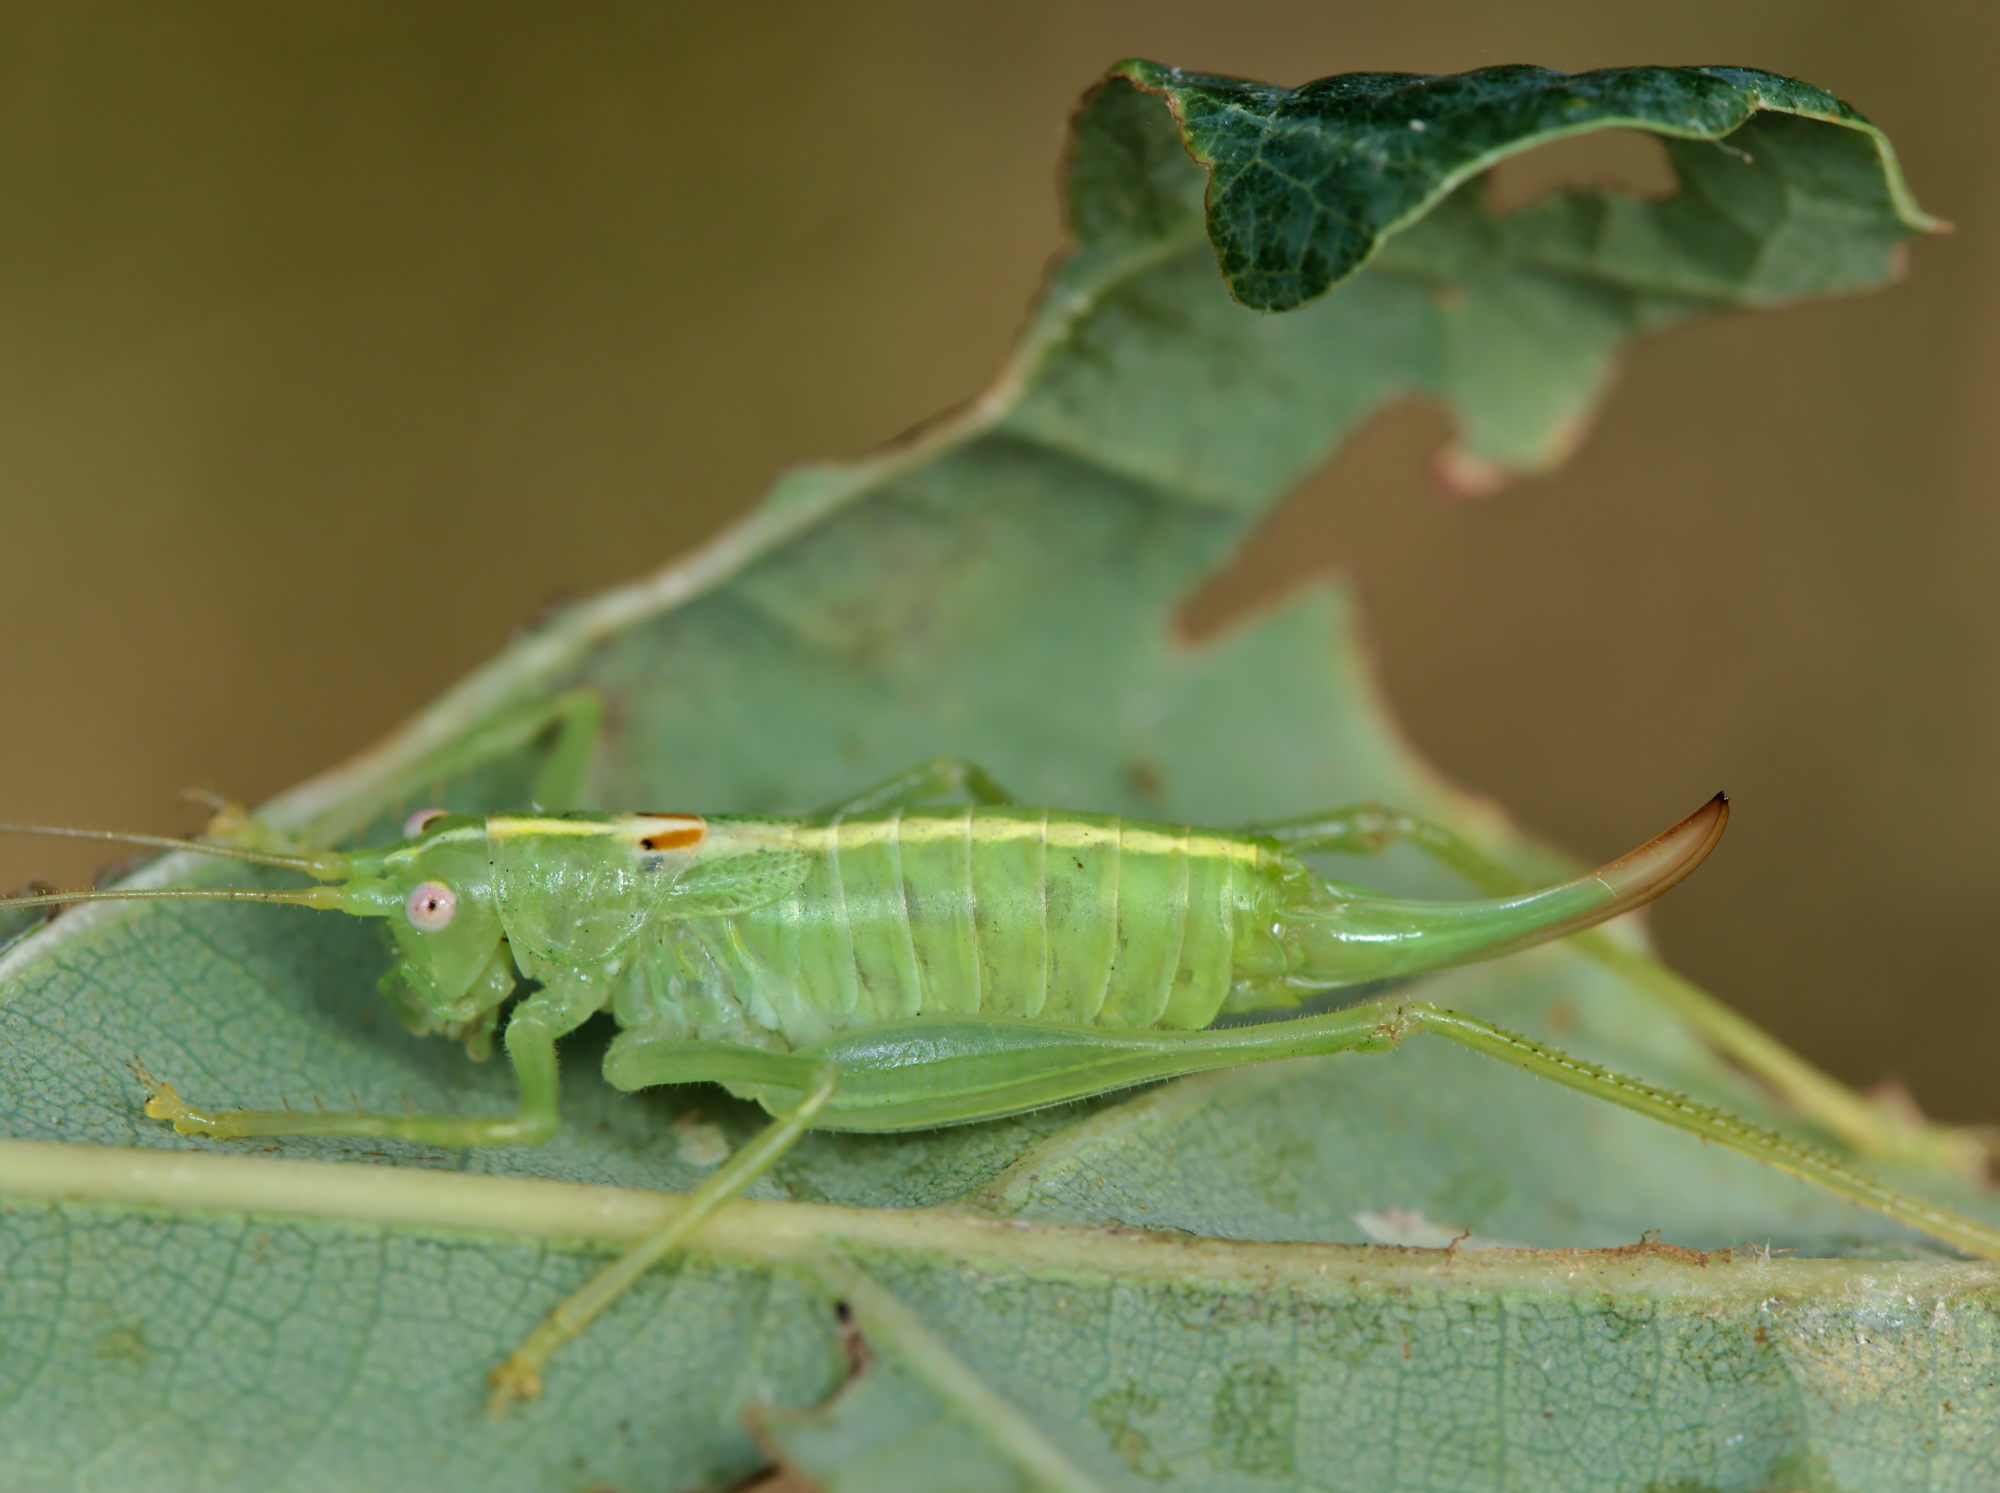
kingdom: Animalia
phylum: Arthropoda
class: Insecta
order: Orthoptera
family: Tettigoniidae
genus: Meconema
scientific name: Meconema meridionale
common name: Southern oak bush-cricket
